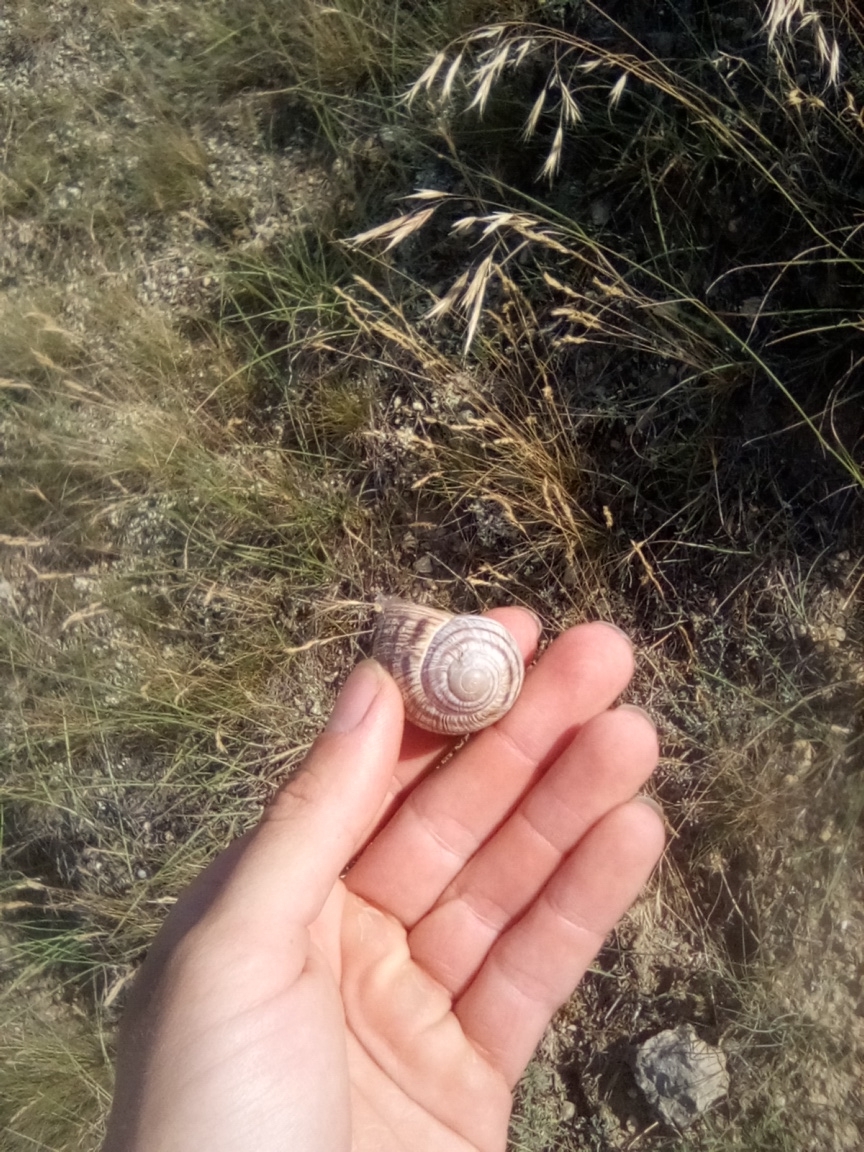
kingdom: Animalia
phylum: Mollusca
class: Gastropoda
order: Stylommatophora
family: Helicidae
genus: Helix
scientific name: Helix albescens
